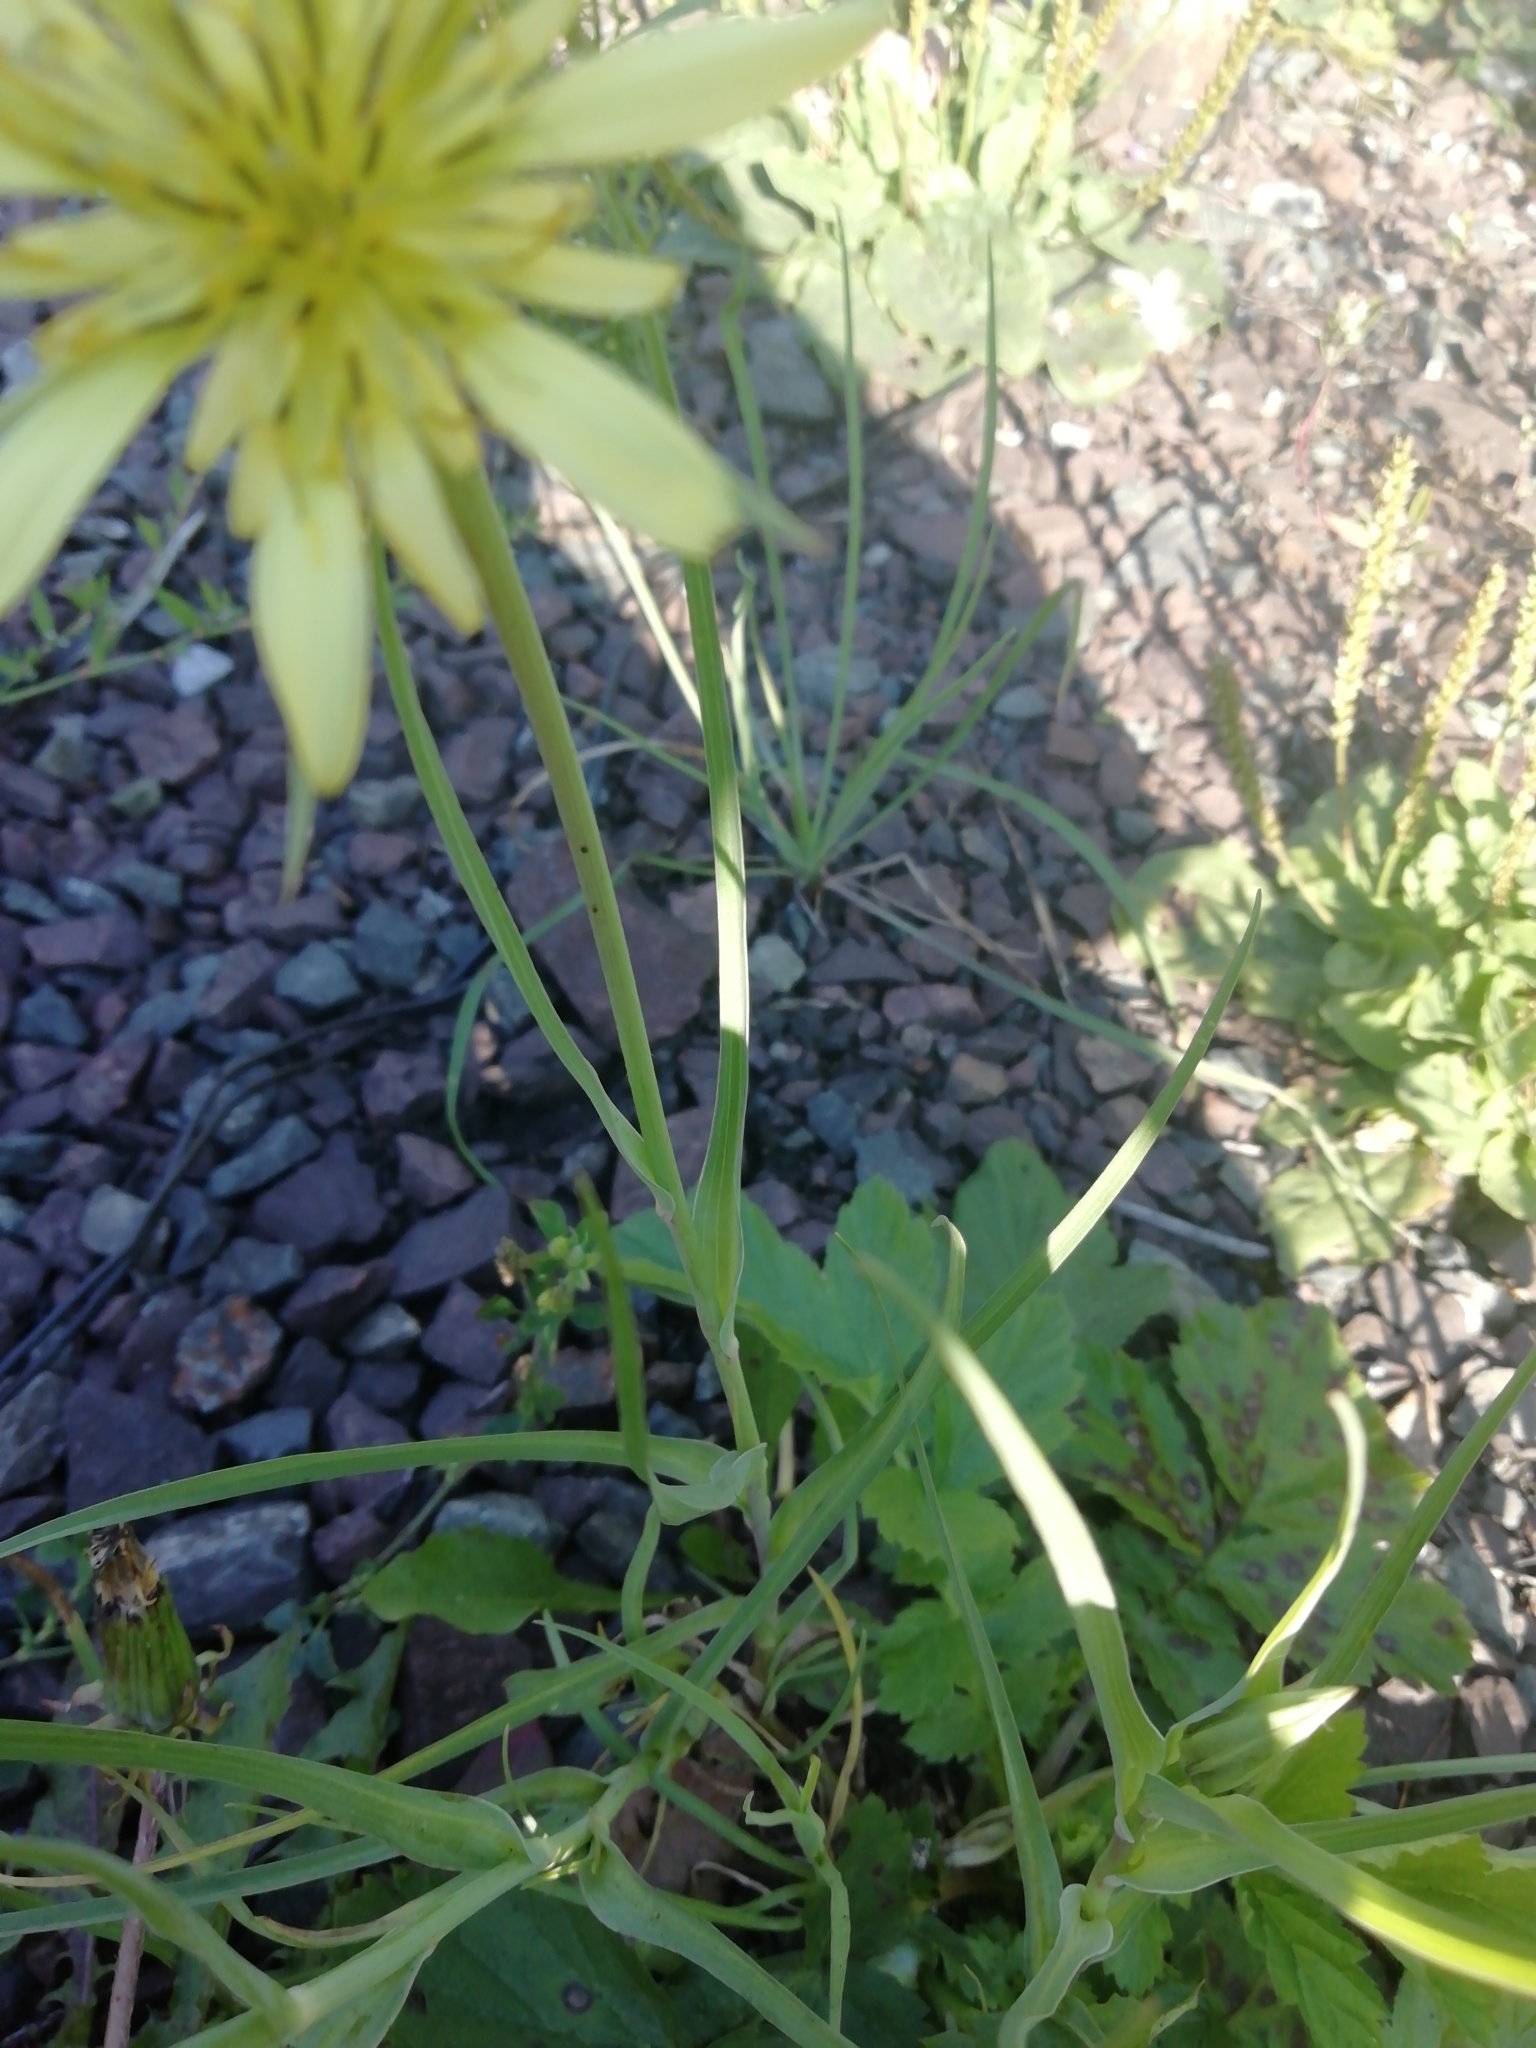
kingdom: Plantae
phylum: Tracheophyta
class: Magnoliopsida
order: Asterales
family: Asteraceae
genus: Tragopogon
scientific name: Tragopogon dubius
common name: Yellow salsify
